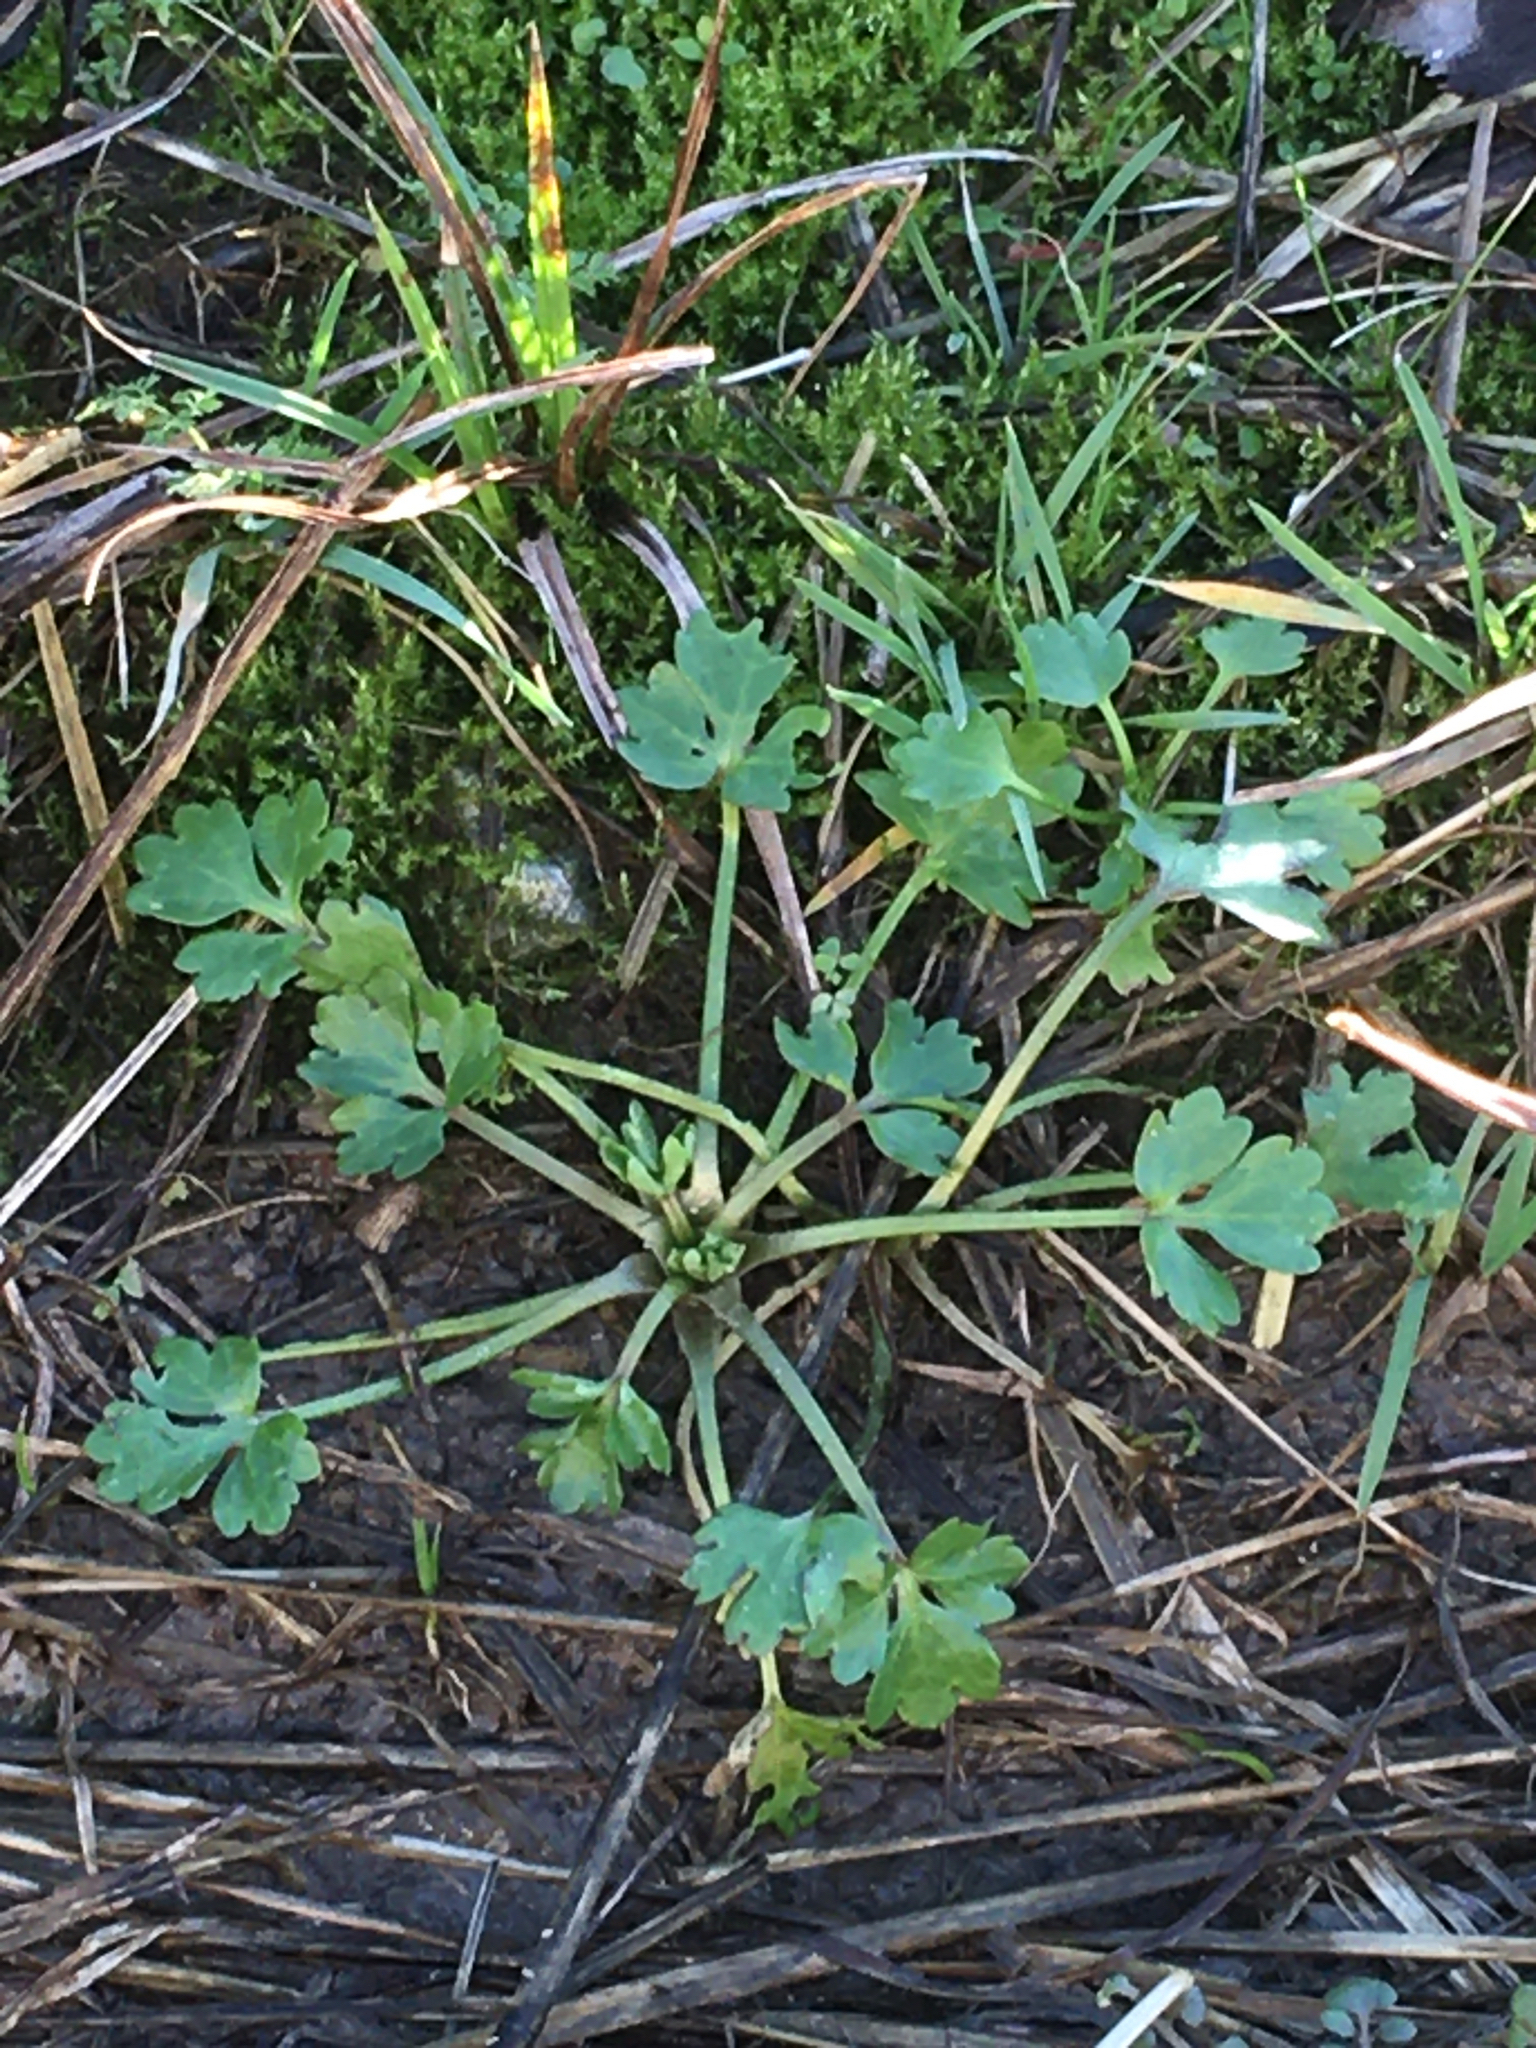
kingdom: Plantae
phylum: Tracheophyta
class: Magnoliopsida
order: Ranunculales
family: Ranunculaceae
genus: Ranunculus
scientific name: Ranunculus sceleratus
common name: Celery-leaved buttercup
